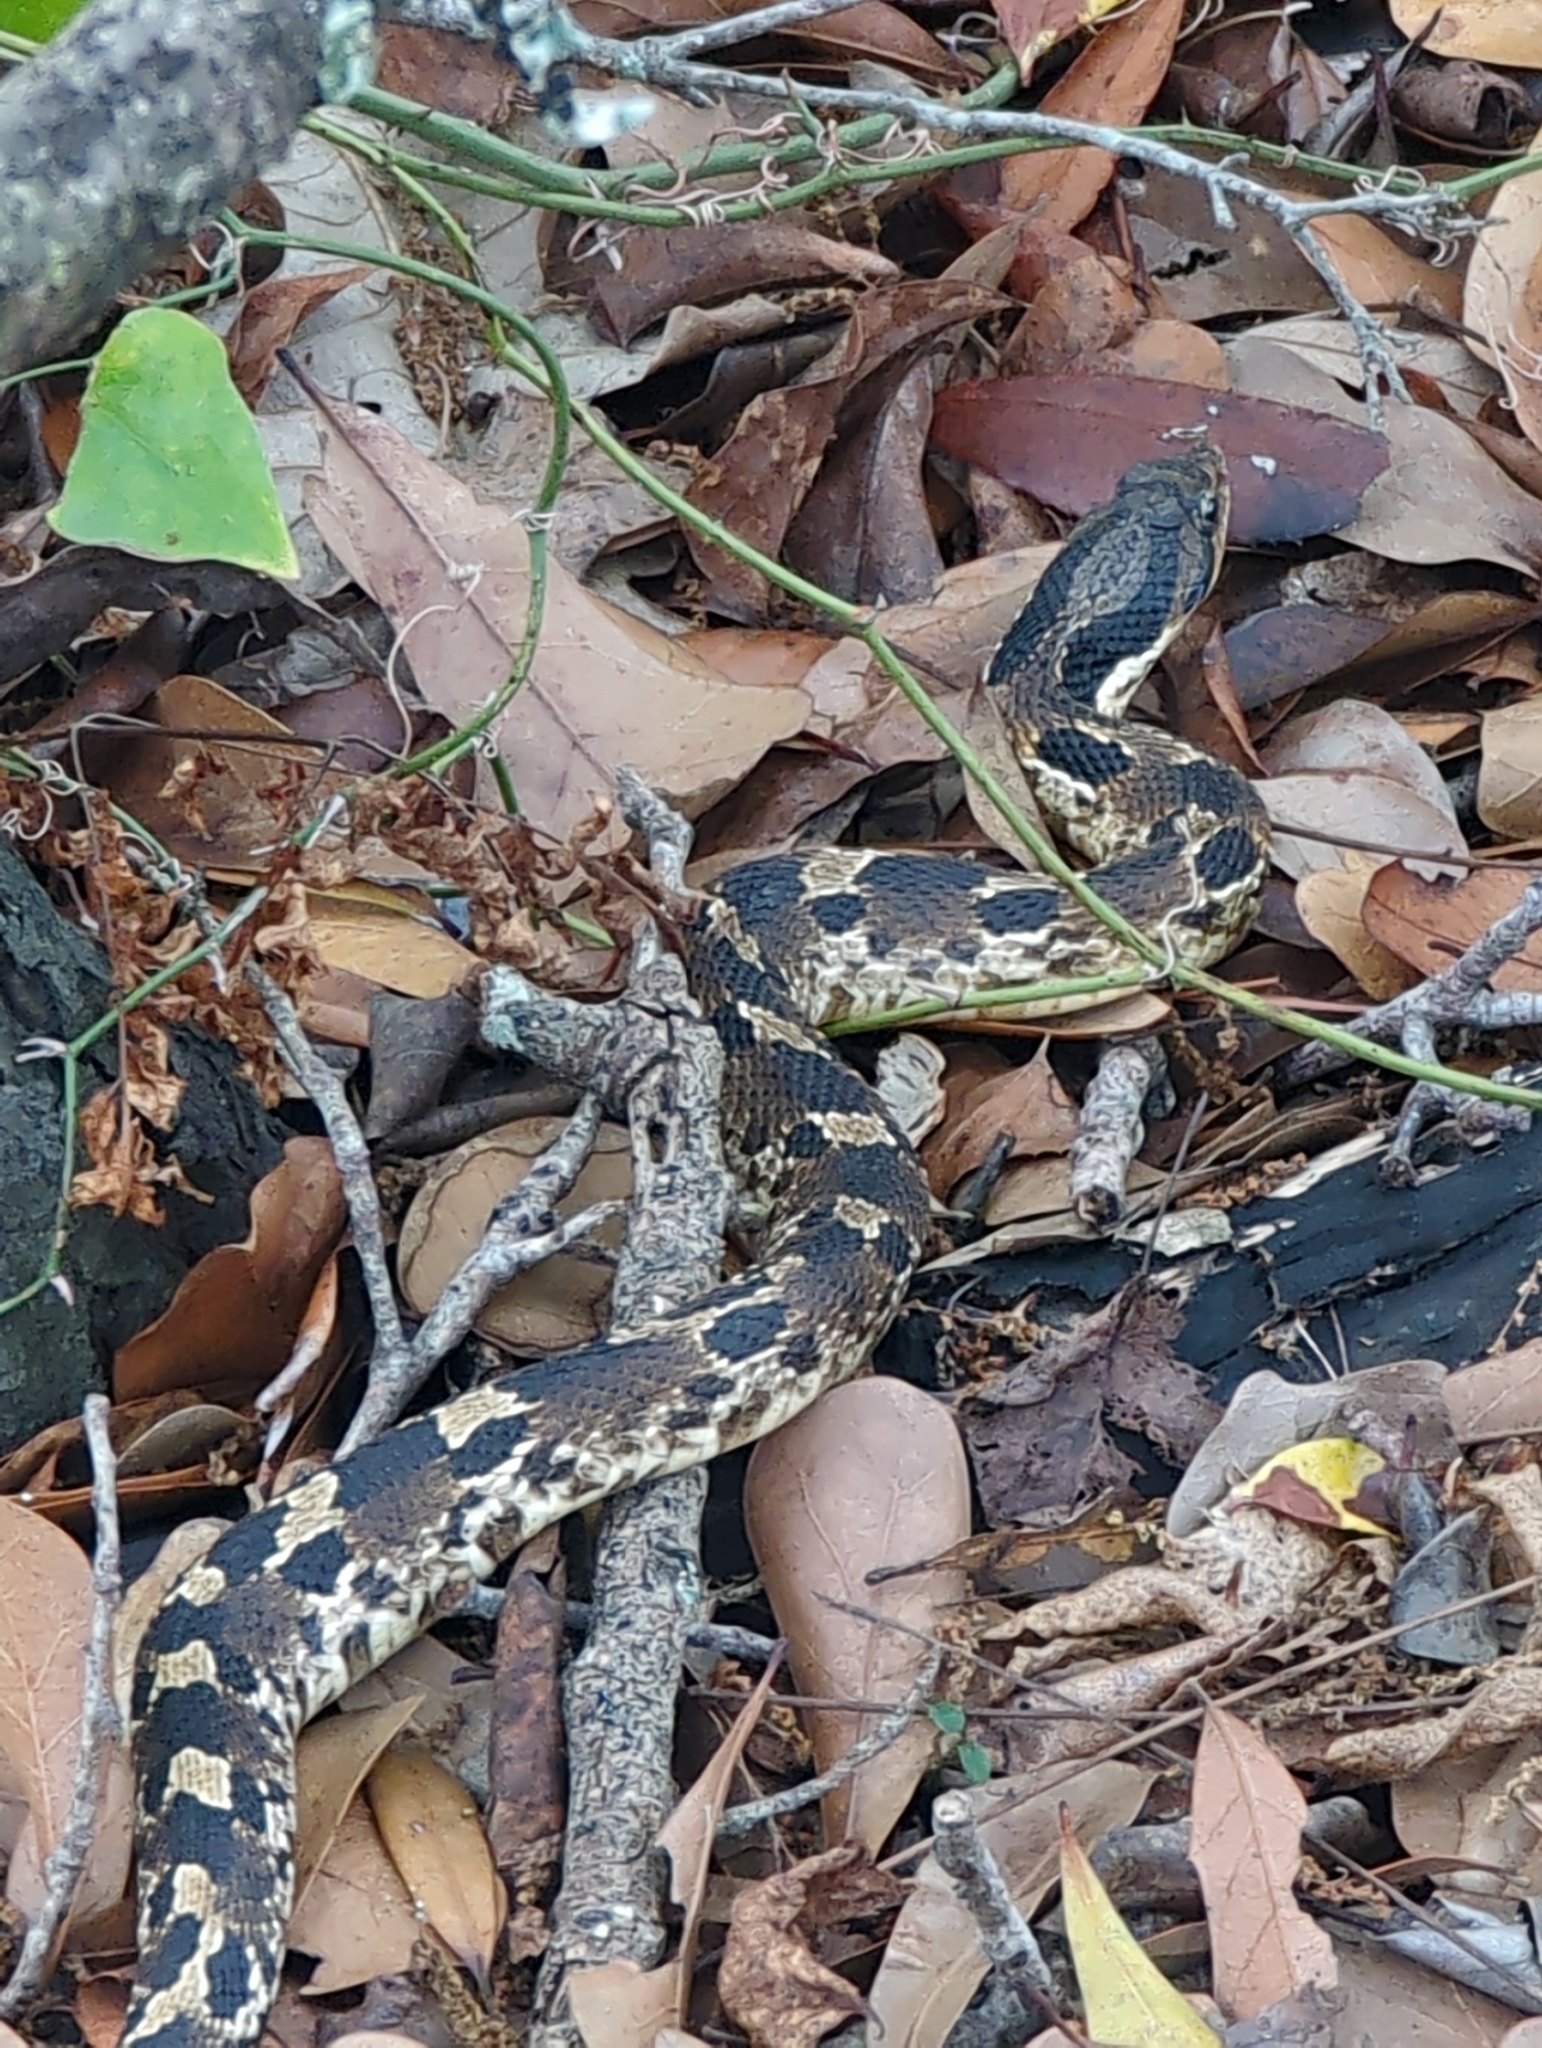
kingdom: Animalia
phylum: Chordata
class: Squamata
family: Colubridae
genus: Heterodon
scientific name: Heterodon platirhinos
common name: Eastern hognose snake
